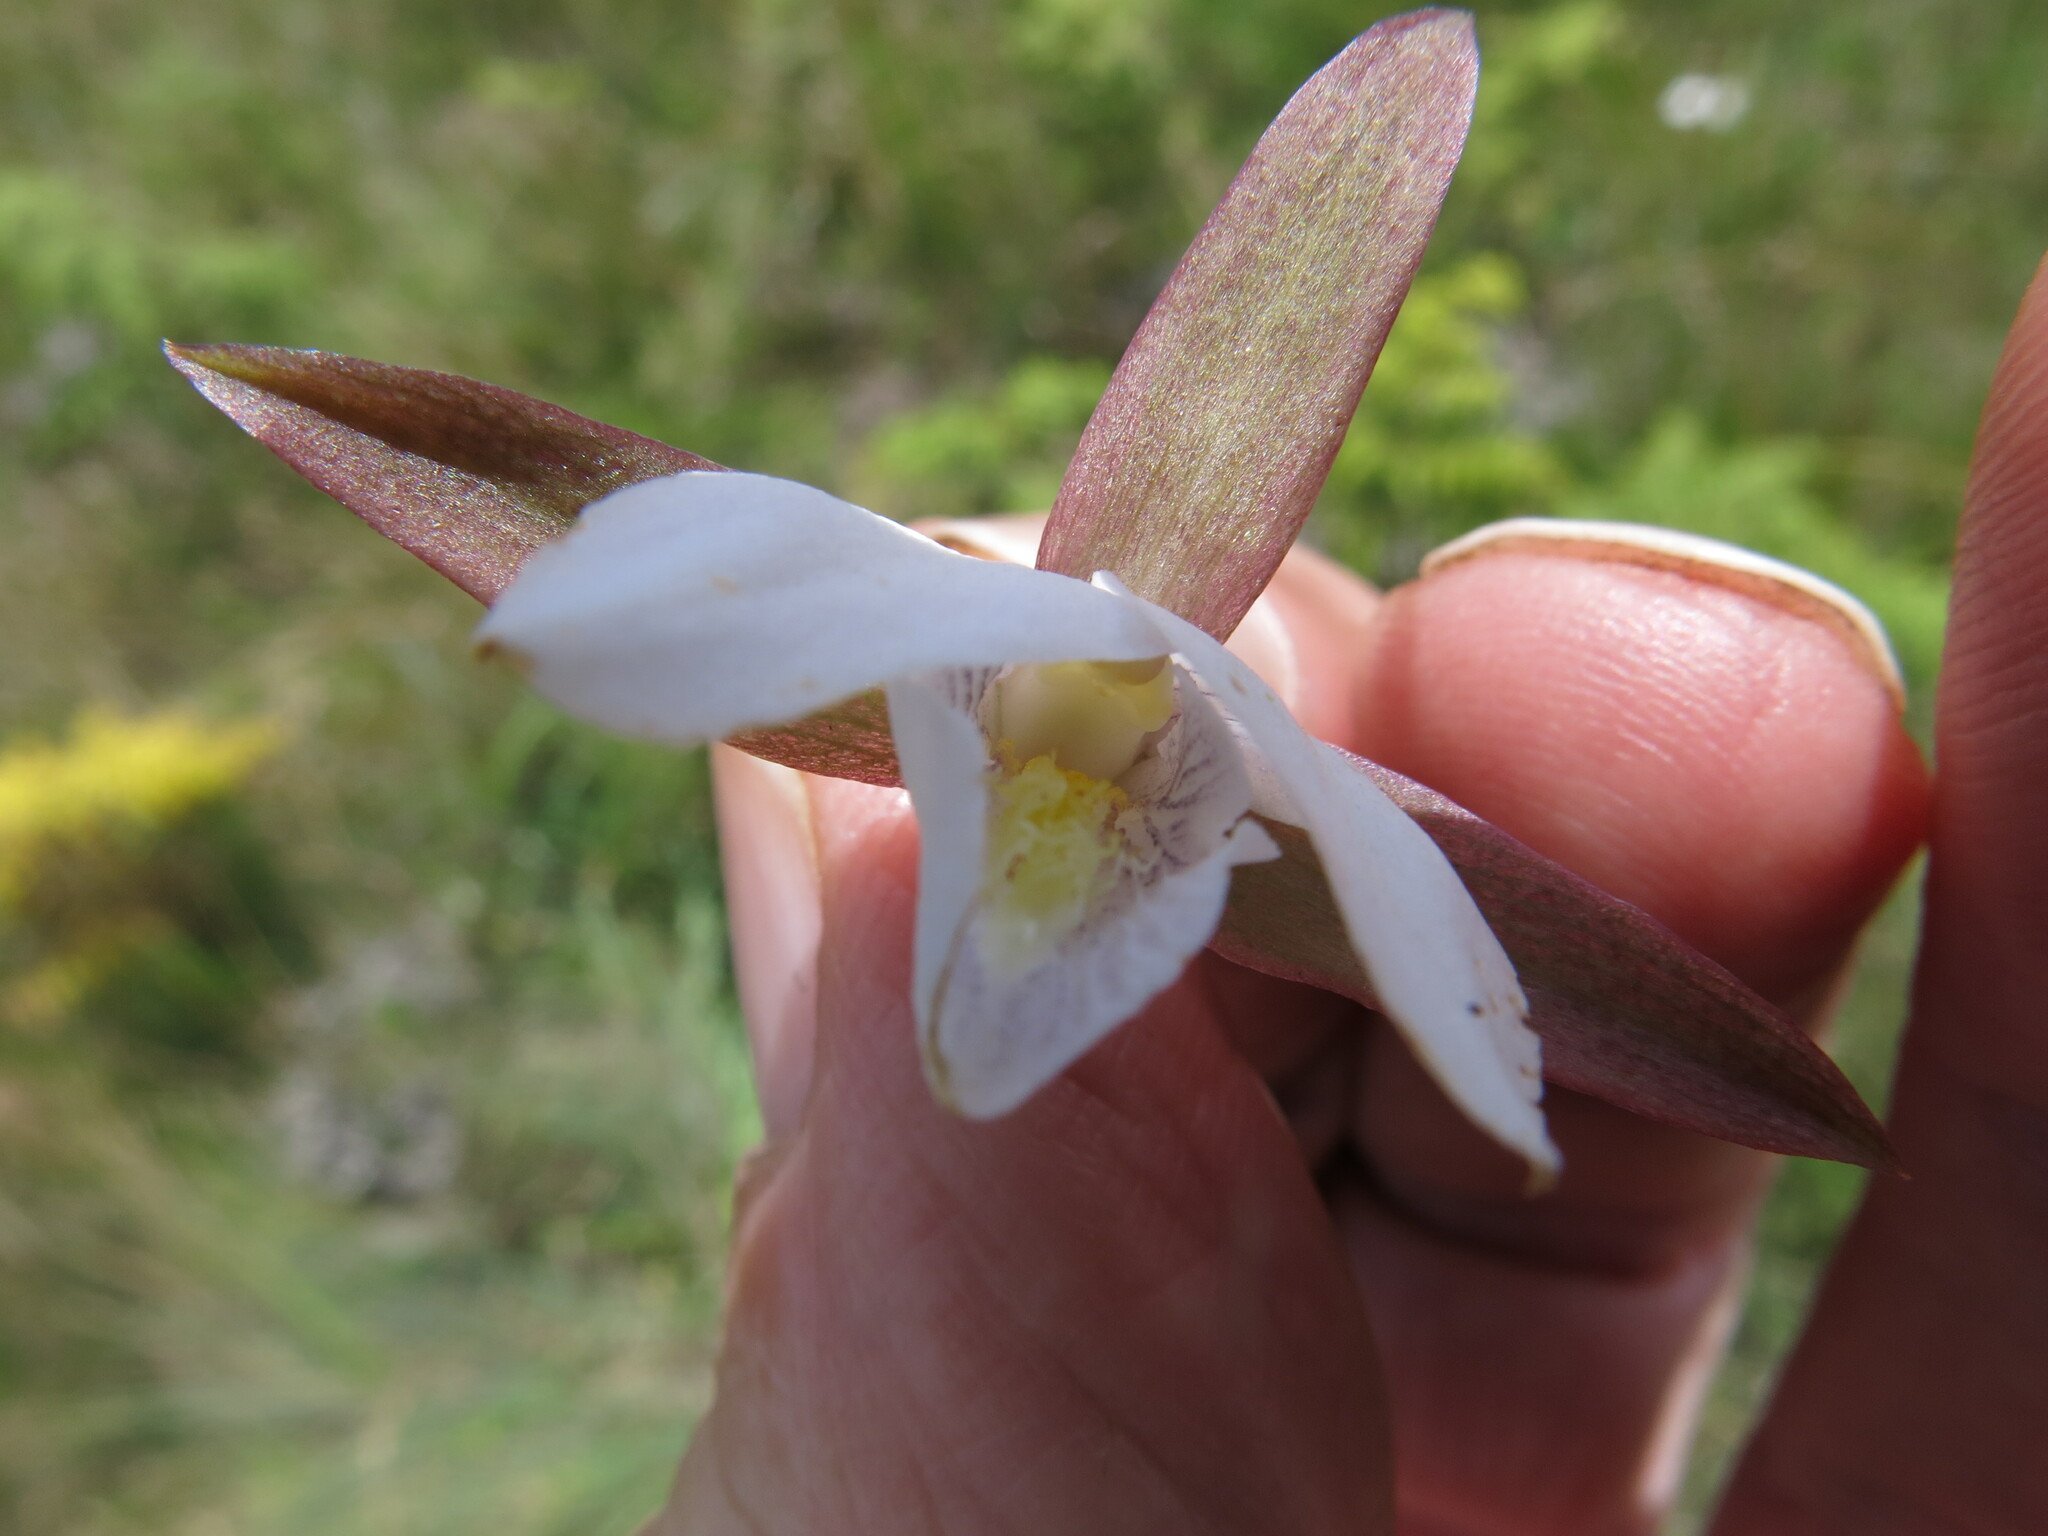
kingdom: Plantae
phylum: Tracheophyta
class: Liliopsida
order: Asparagales
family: Orchidaceae
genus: Eulophia
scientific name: Eulophia ovalis
